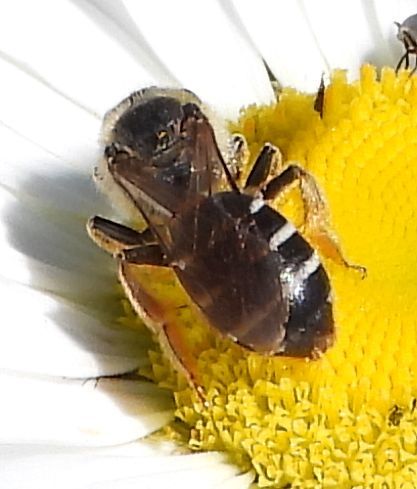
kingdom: Animalia
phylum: Arthropoda
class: Insecta
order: Hymenoptera
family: Halictidae
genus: Halictus
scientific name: Halictus rubicundus
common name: Orange-legged furrow bee
